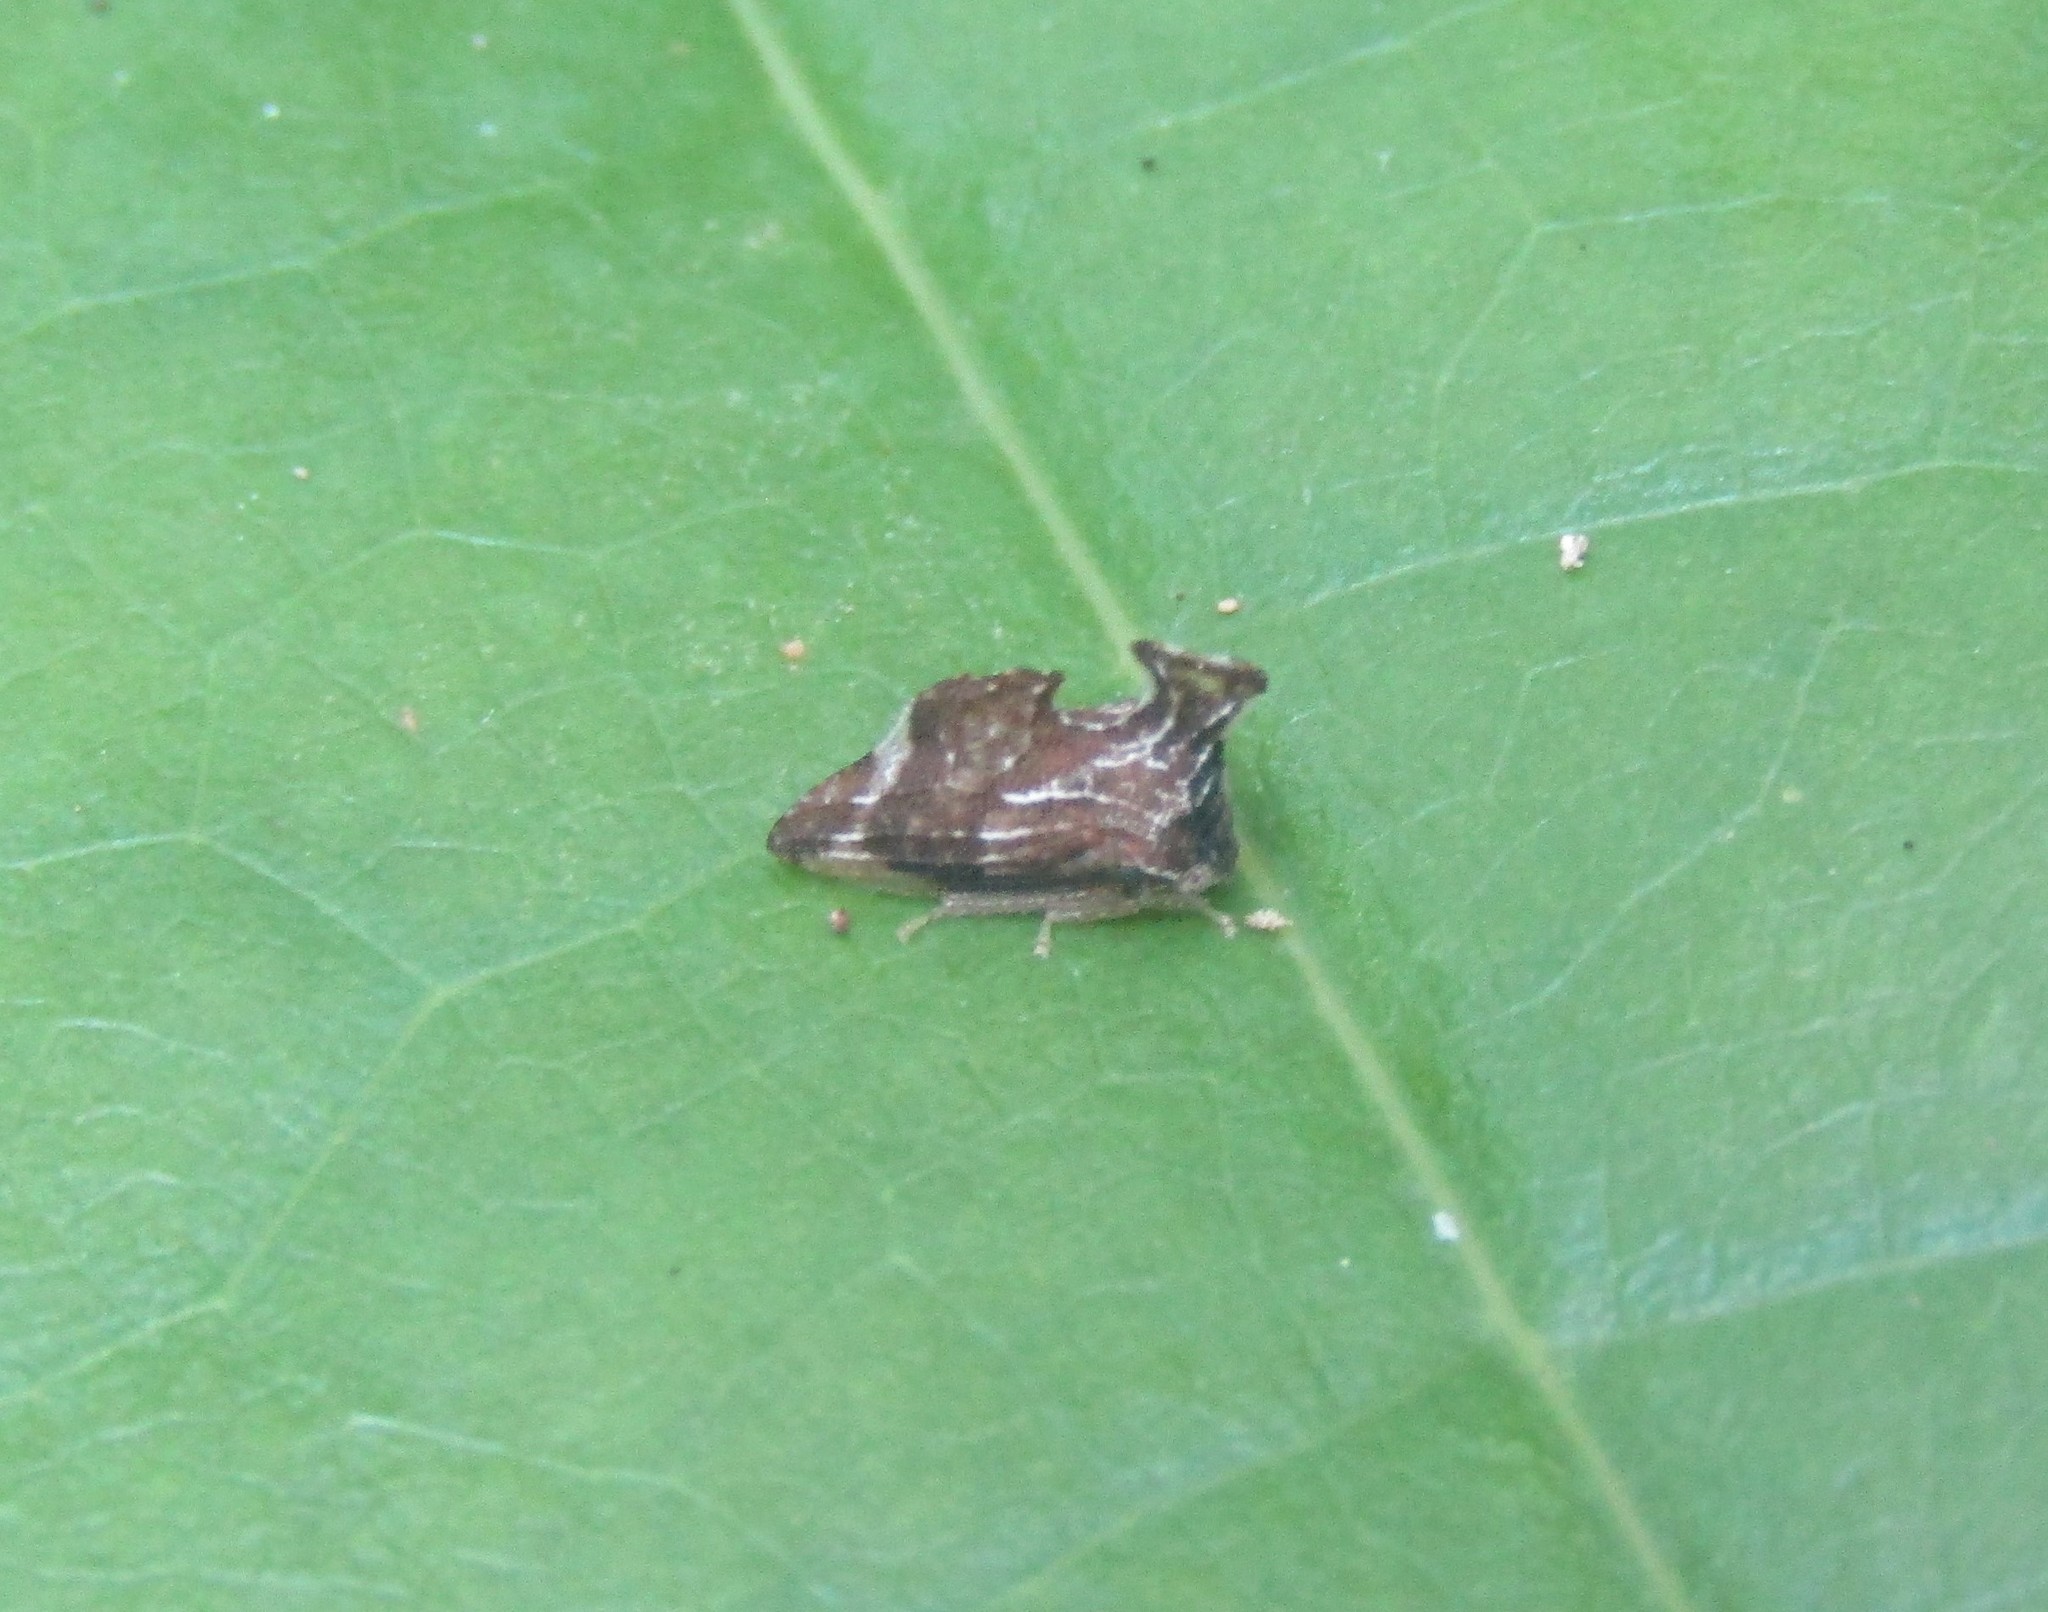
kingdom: Animalia
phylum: Arthropoda
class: Insecta
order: Hemiptera
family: Membracidae
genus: Entylia
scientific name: Entylia carinata
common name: Keeled treehopper
